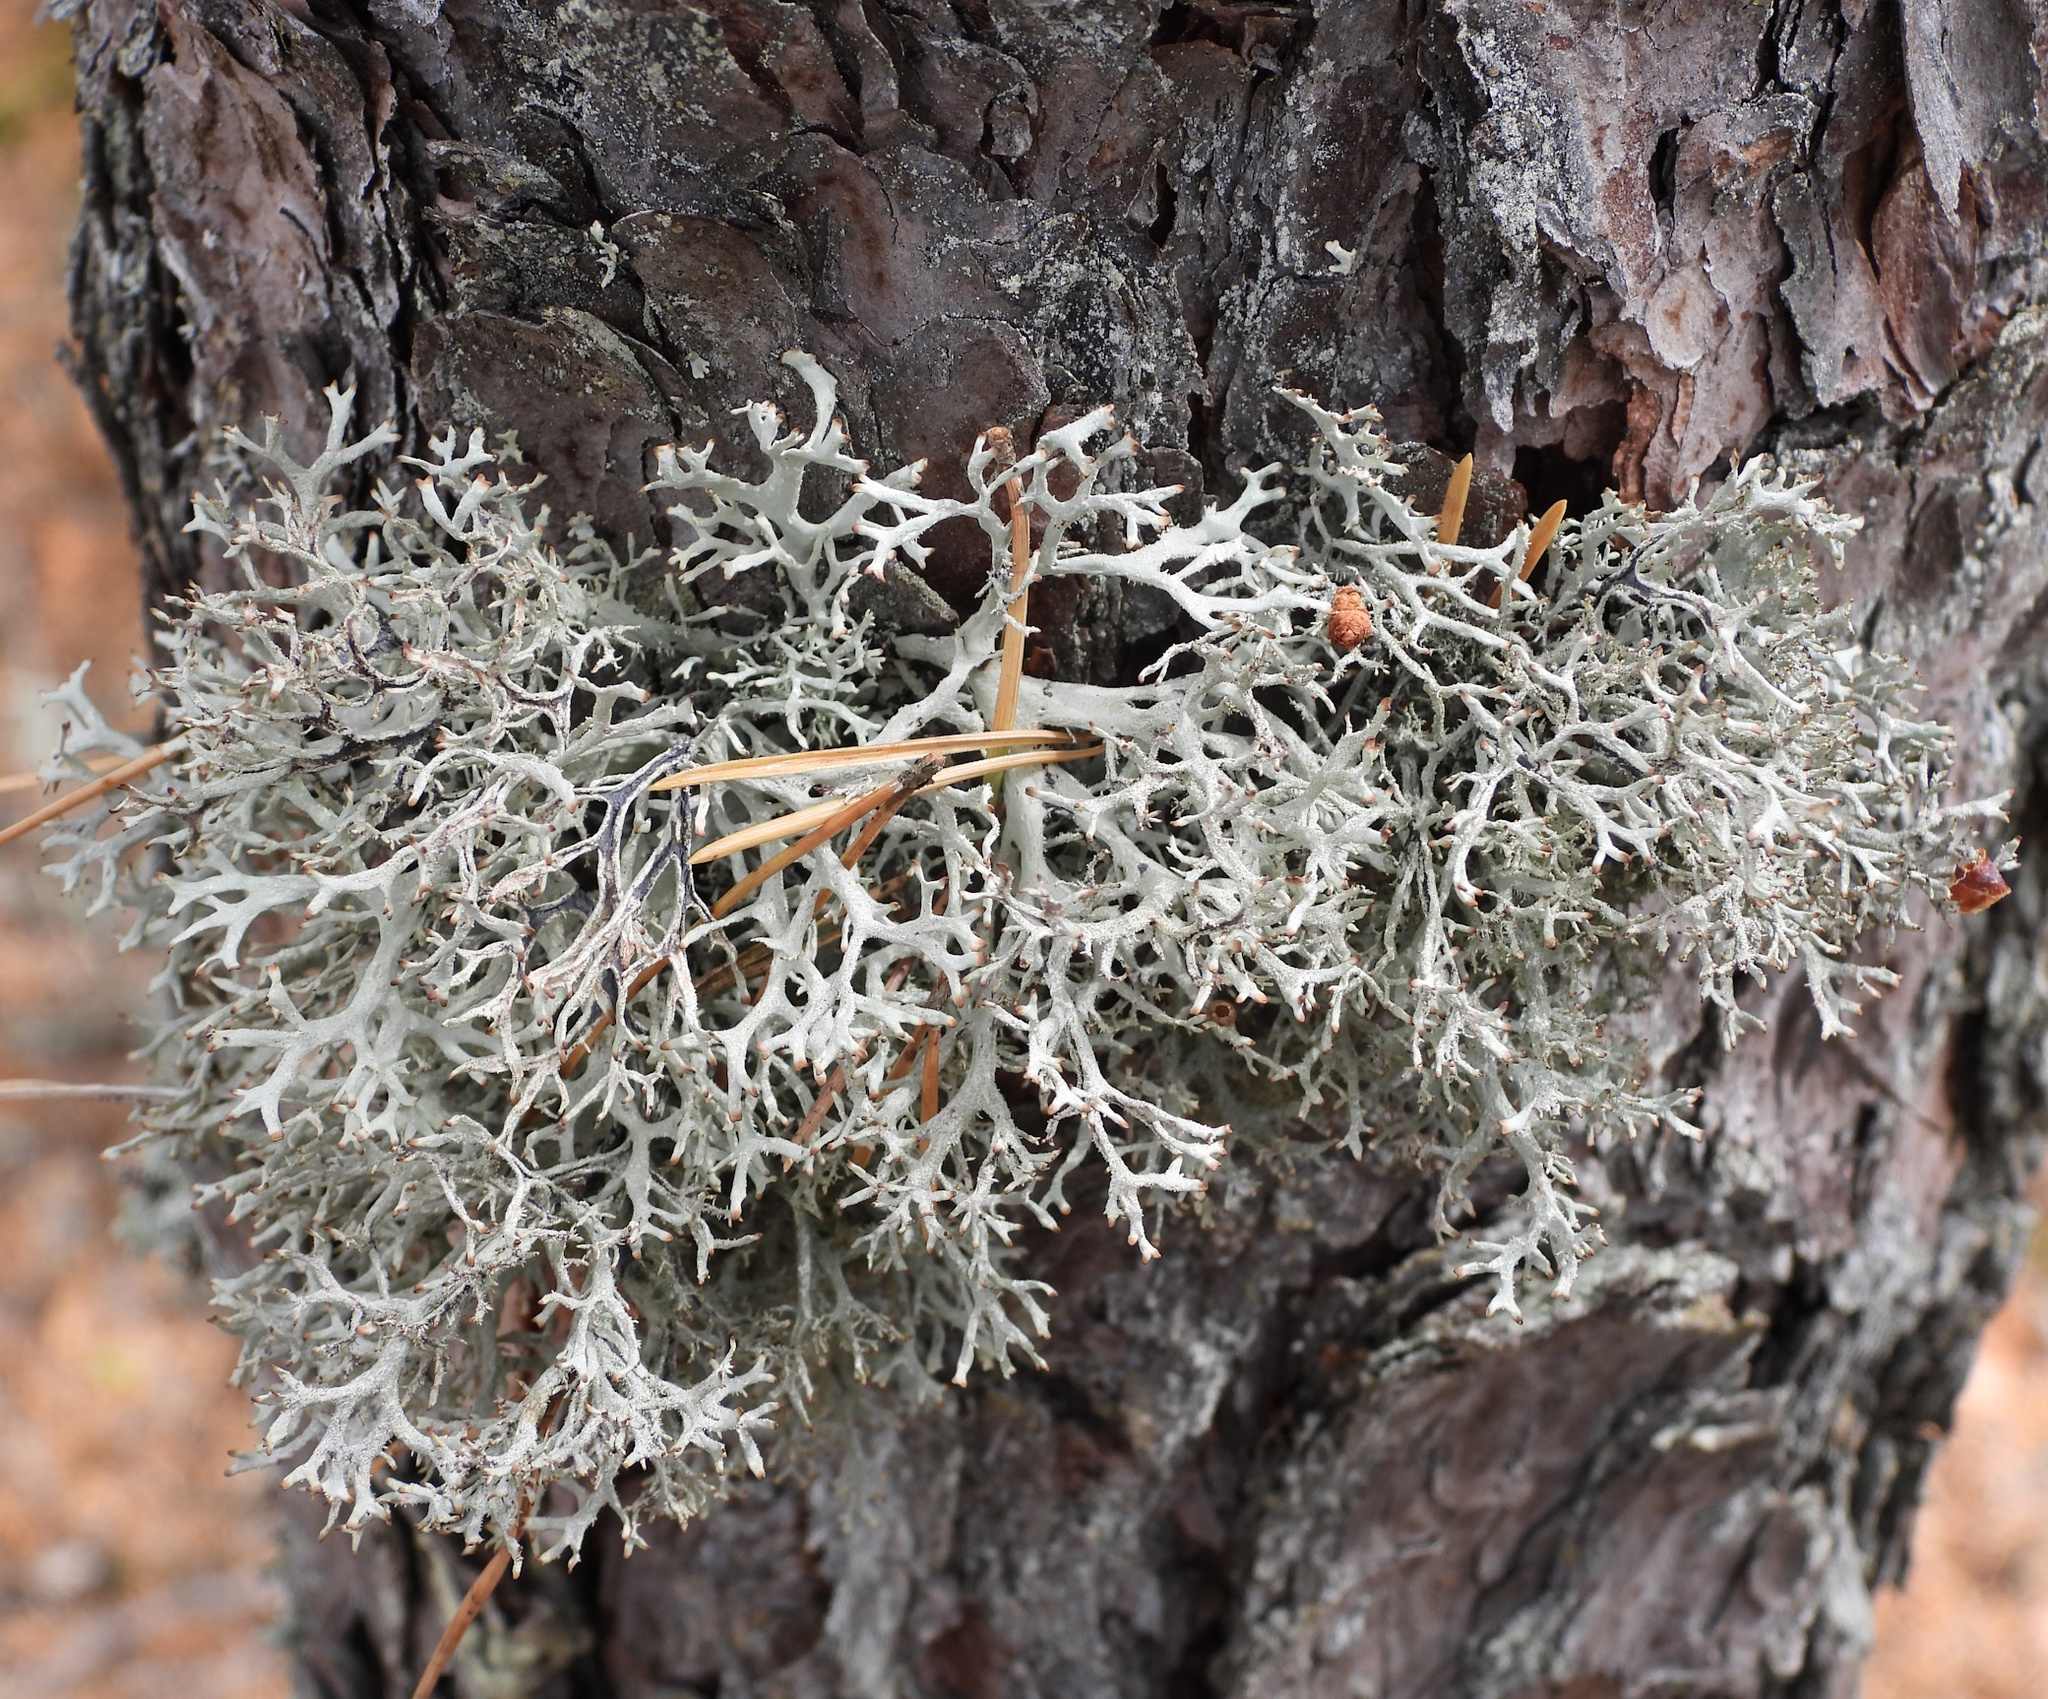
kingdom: Fungi
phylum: Ascomycota
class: Lecanoromycetes
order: Lecanorales
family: Parmeliaceae
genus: Pseudevernia
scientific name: Pseudevernia furfuracea
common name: Tree moss
